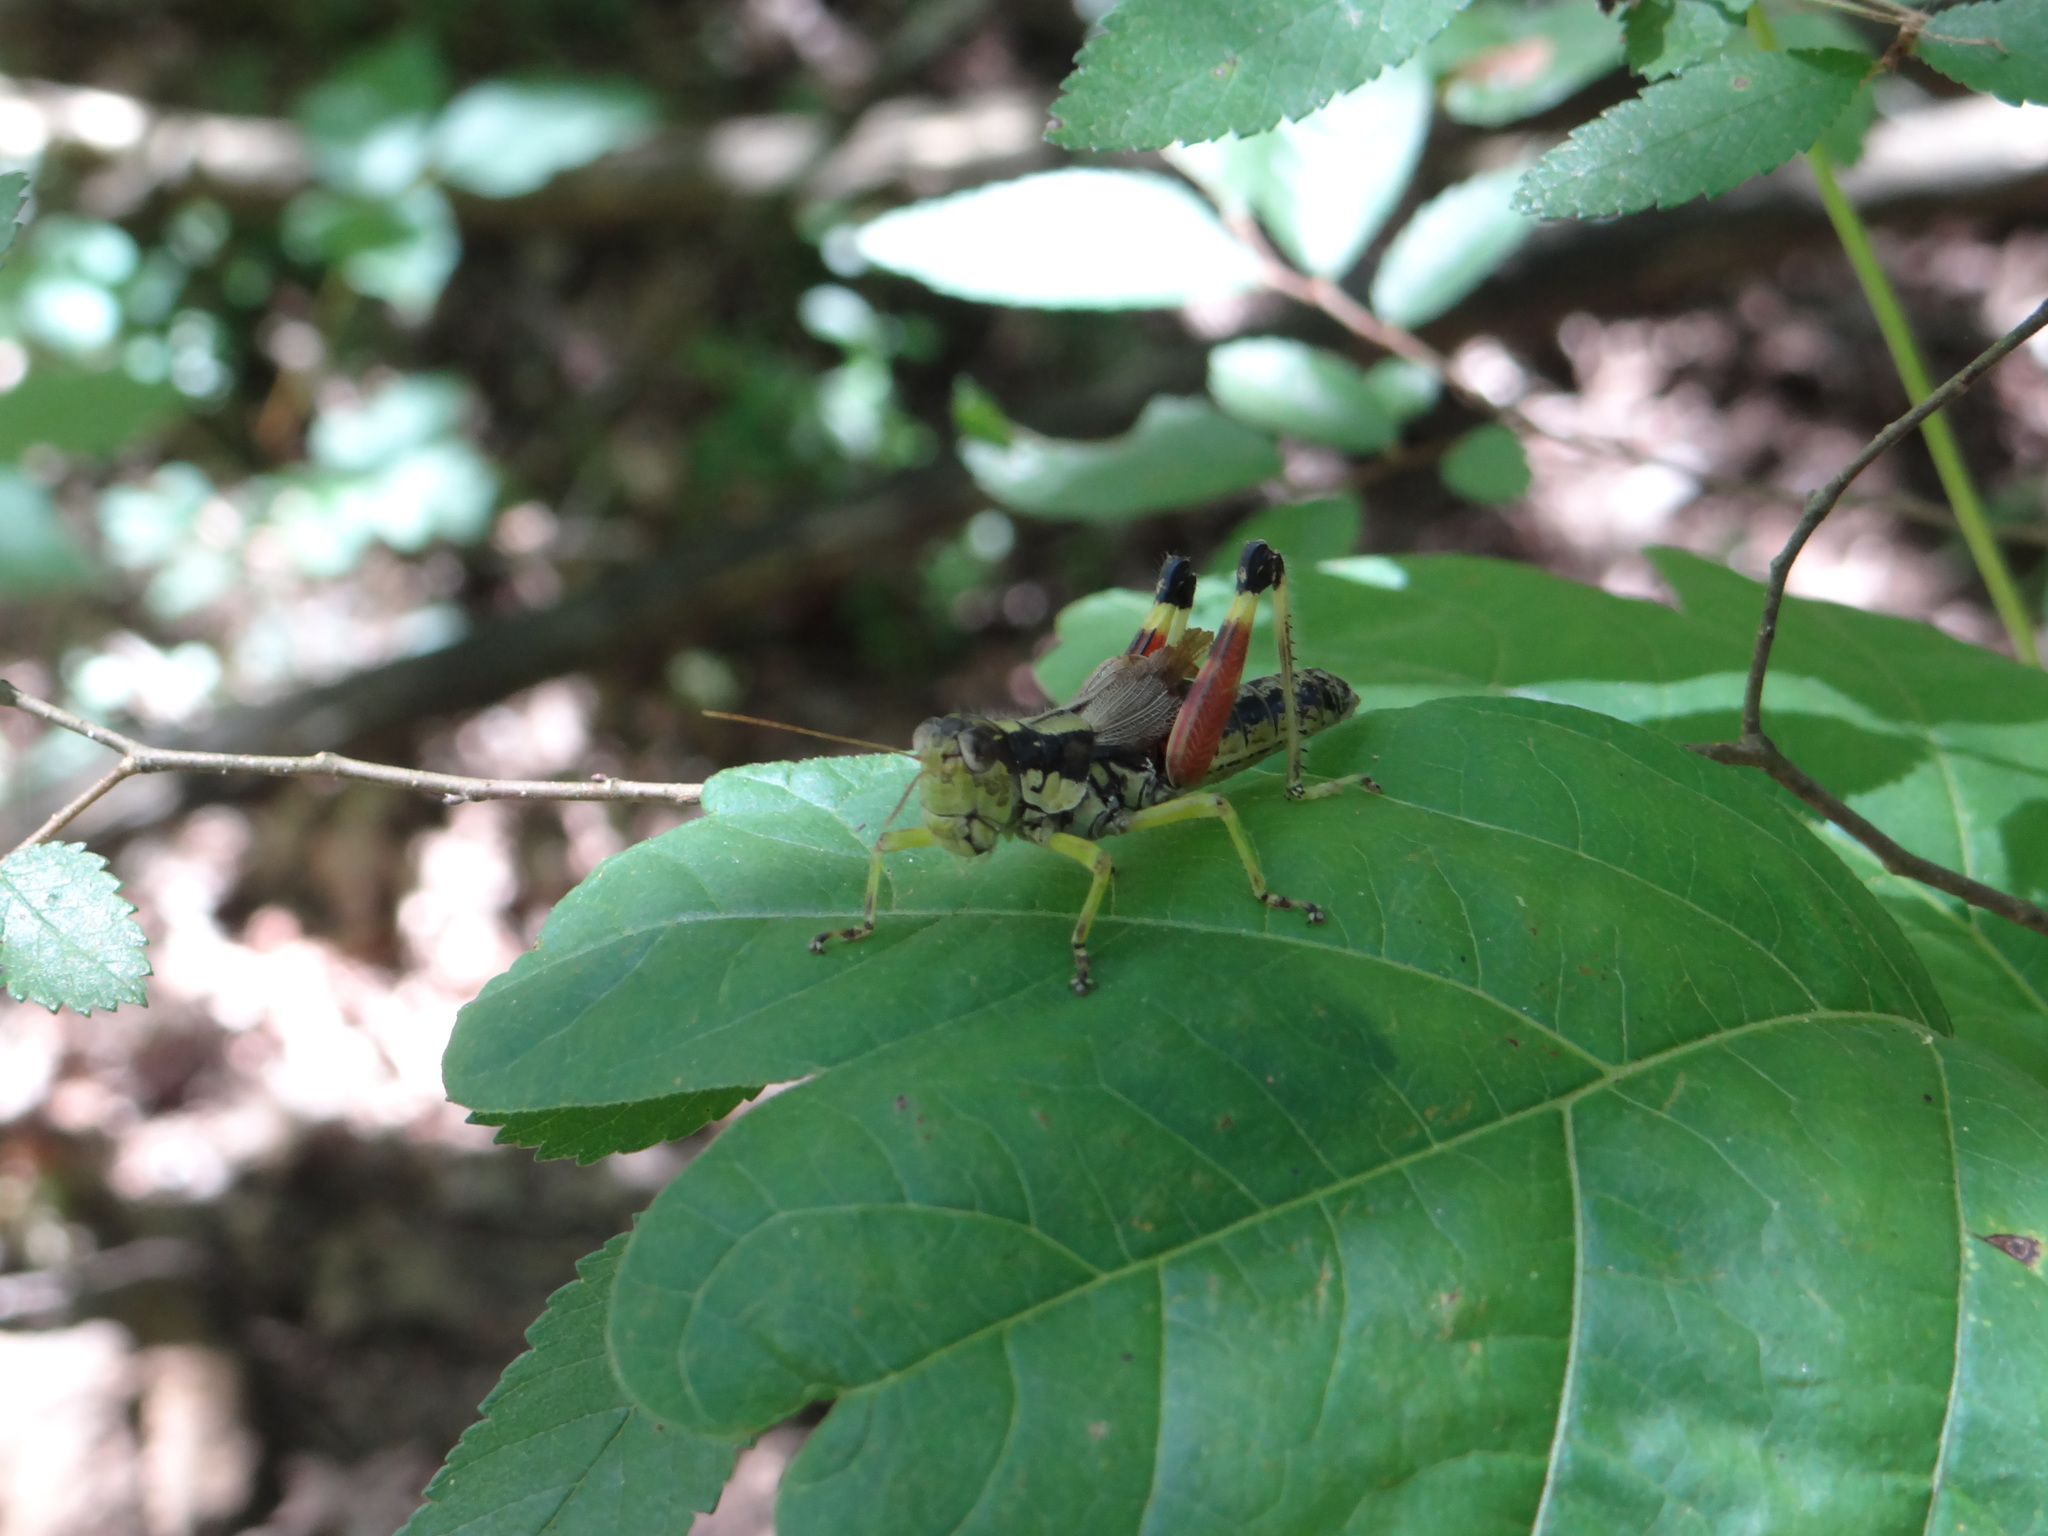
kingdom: Animalia
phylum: Arthropoda
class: Insecta
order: Orthoptera
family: Acrididae
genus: Dendrotettix
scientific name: Dendrotettix quercus
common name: Post oak grasshopper
